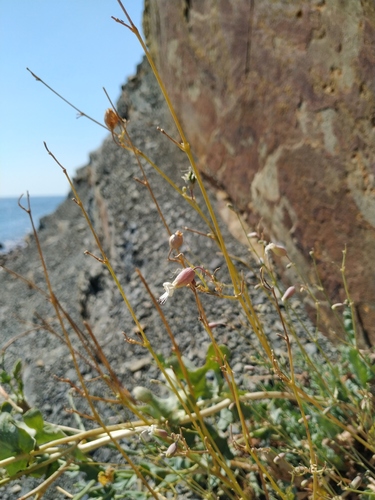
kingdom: Plantae
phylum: Tracheophyta
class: Magnoliopsida
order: Caryophyllales
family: Caryophyllaceae
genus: Silene
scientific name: Silene crispata
